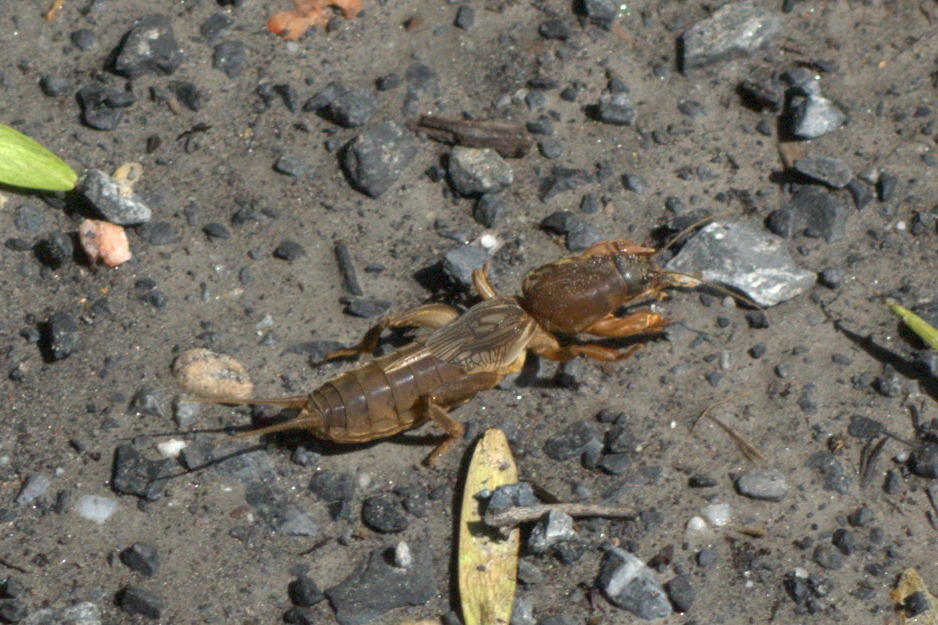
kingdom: Animalia
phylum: Arthropoda
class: Insecta
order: Orthoptera
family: Gryllotalpidae
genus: Neocurtilla
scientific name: Neocurtilla hexadactyla
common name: Northern mole cricket
